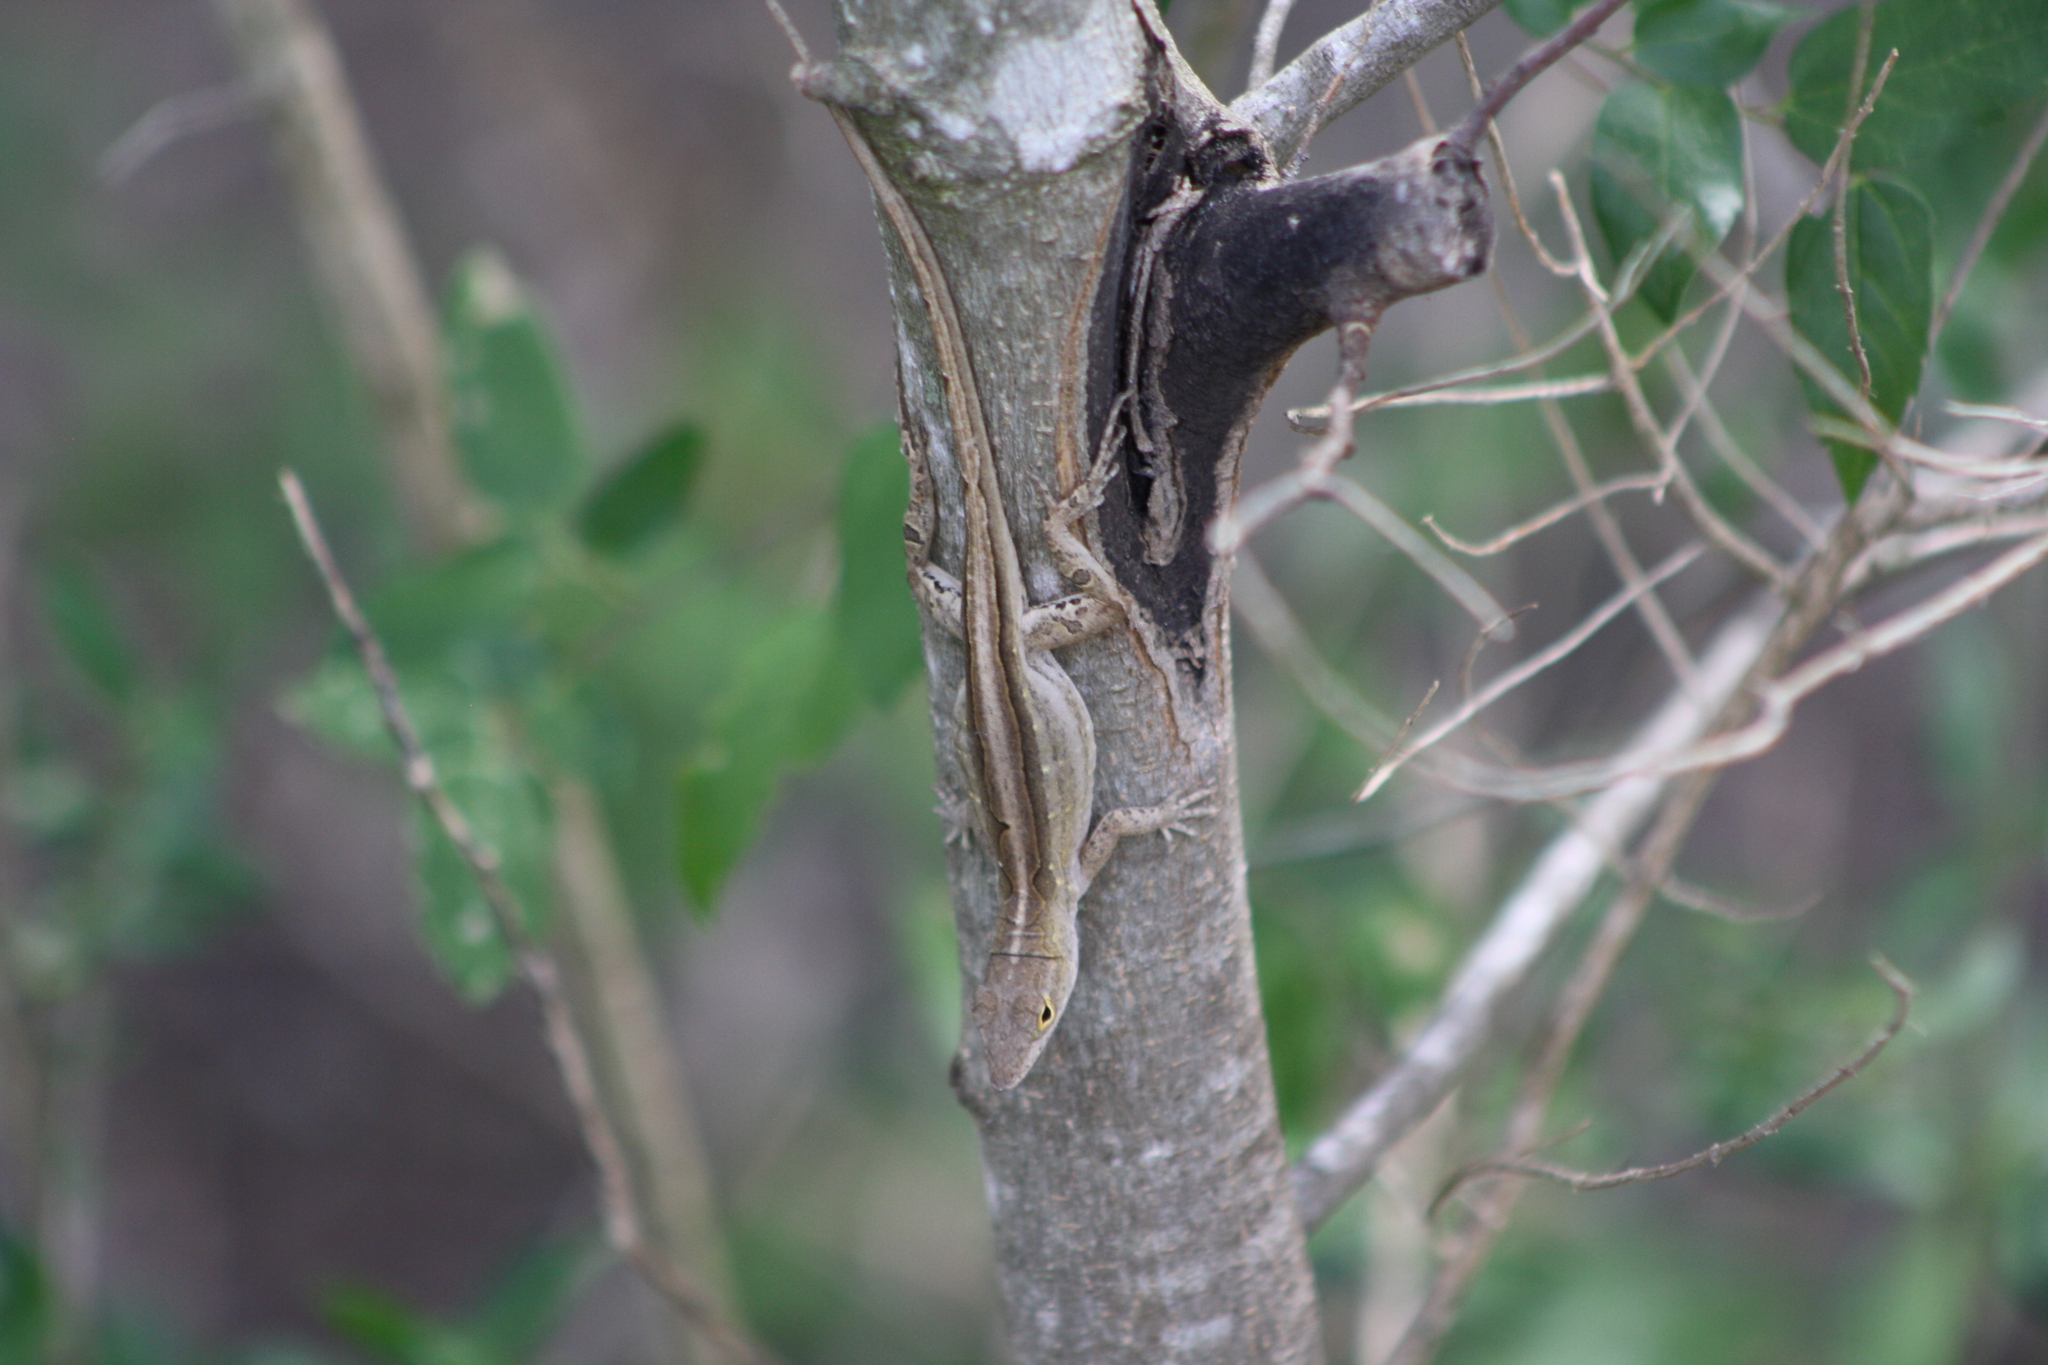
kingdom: Animalia
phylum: Chordata
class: Squamata
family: Dactyloidae
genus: Anolis
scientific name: Anolis sagrei
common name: Brown anole
